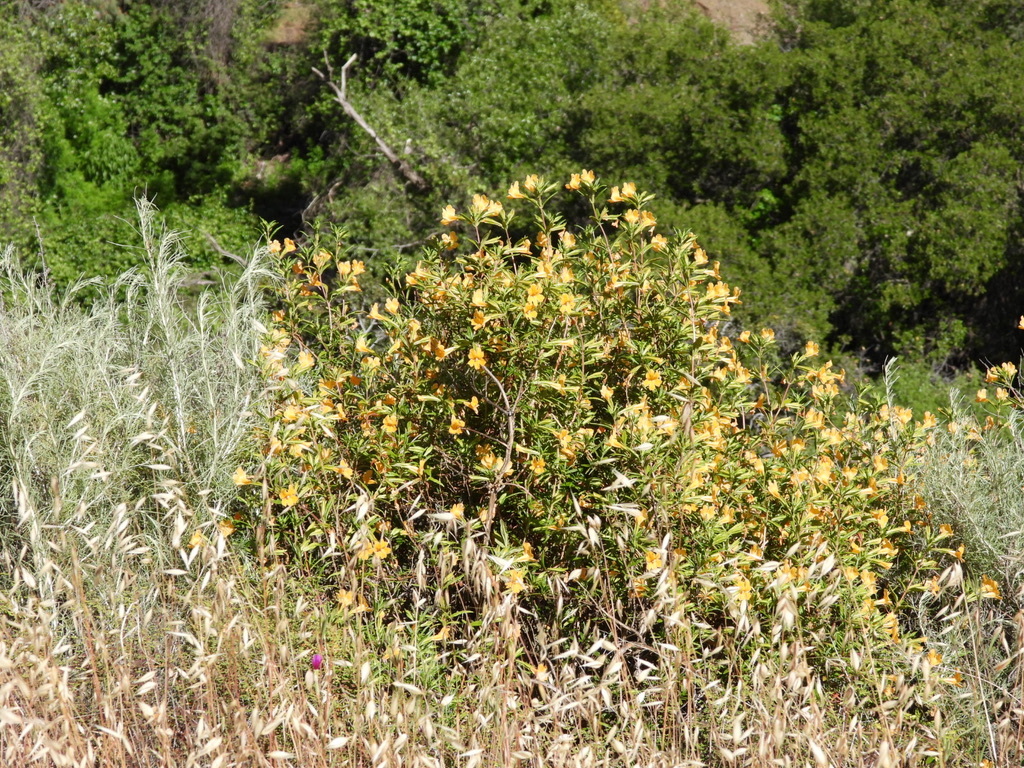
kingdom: Plantae
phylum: Tracheophyta
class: Magnoliopsida
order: Lamiales
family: Phrymaceae
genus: Diplacus
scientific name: Diplacus aurantiacus
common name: Bush monkey-flower
